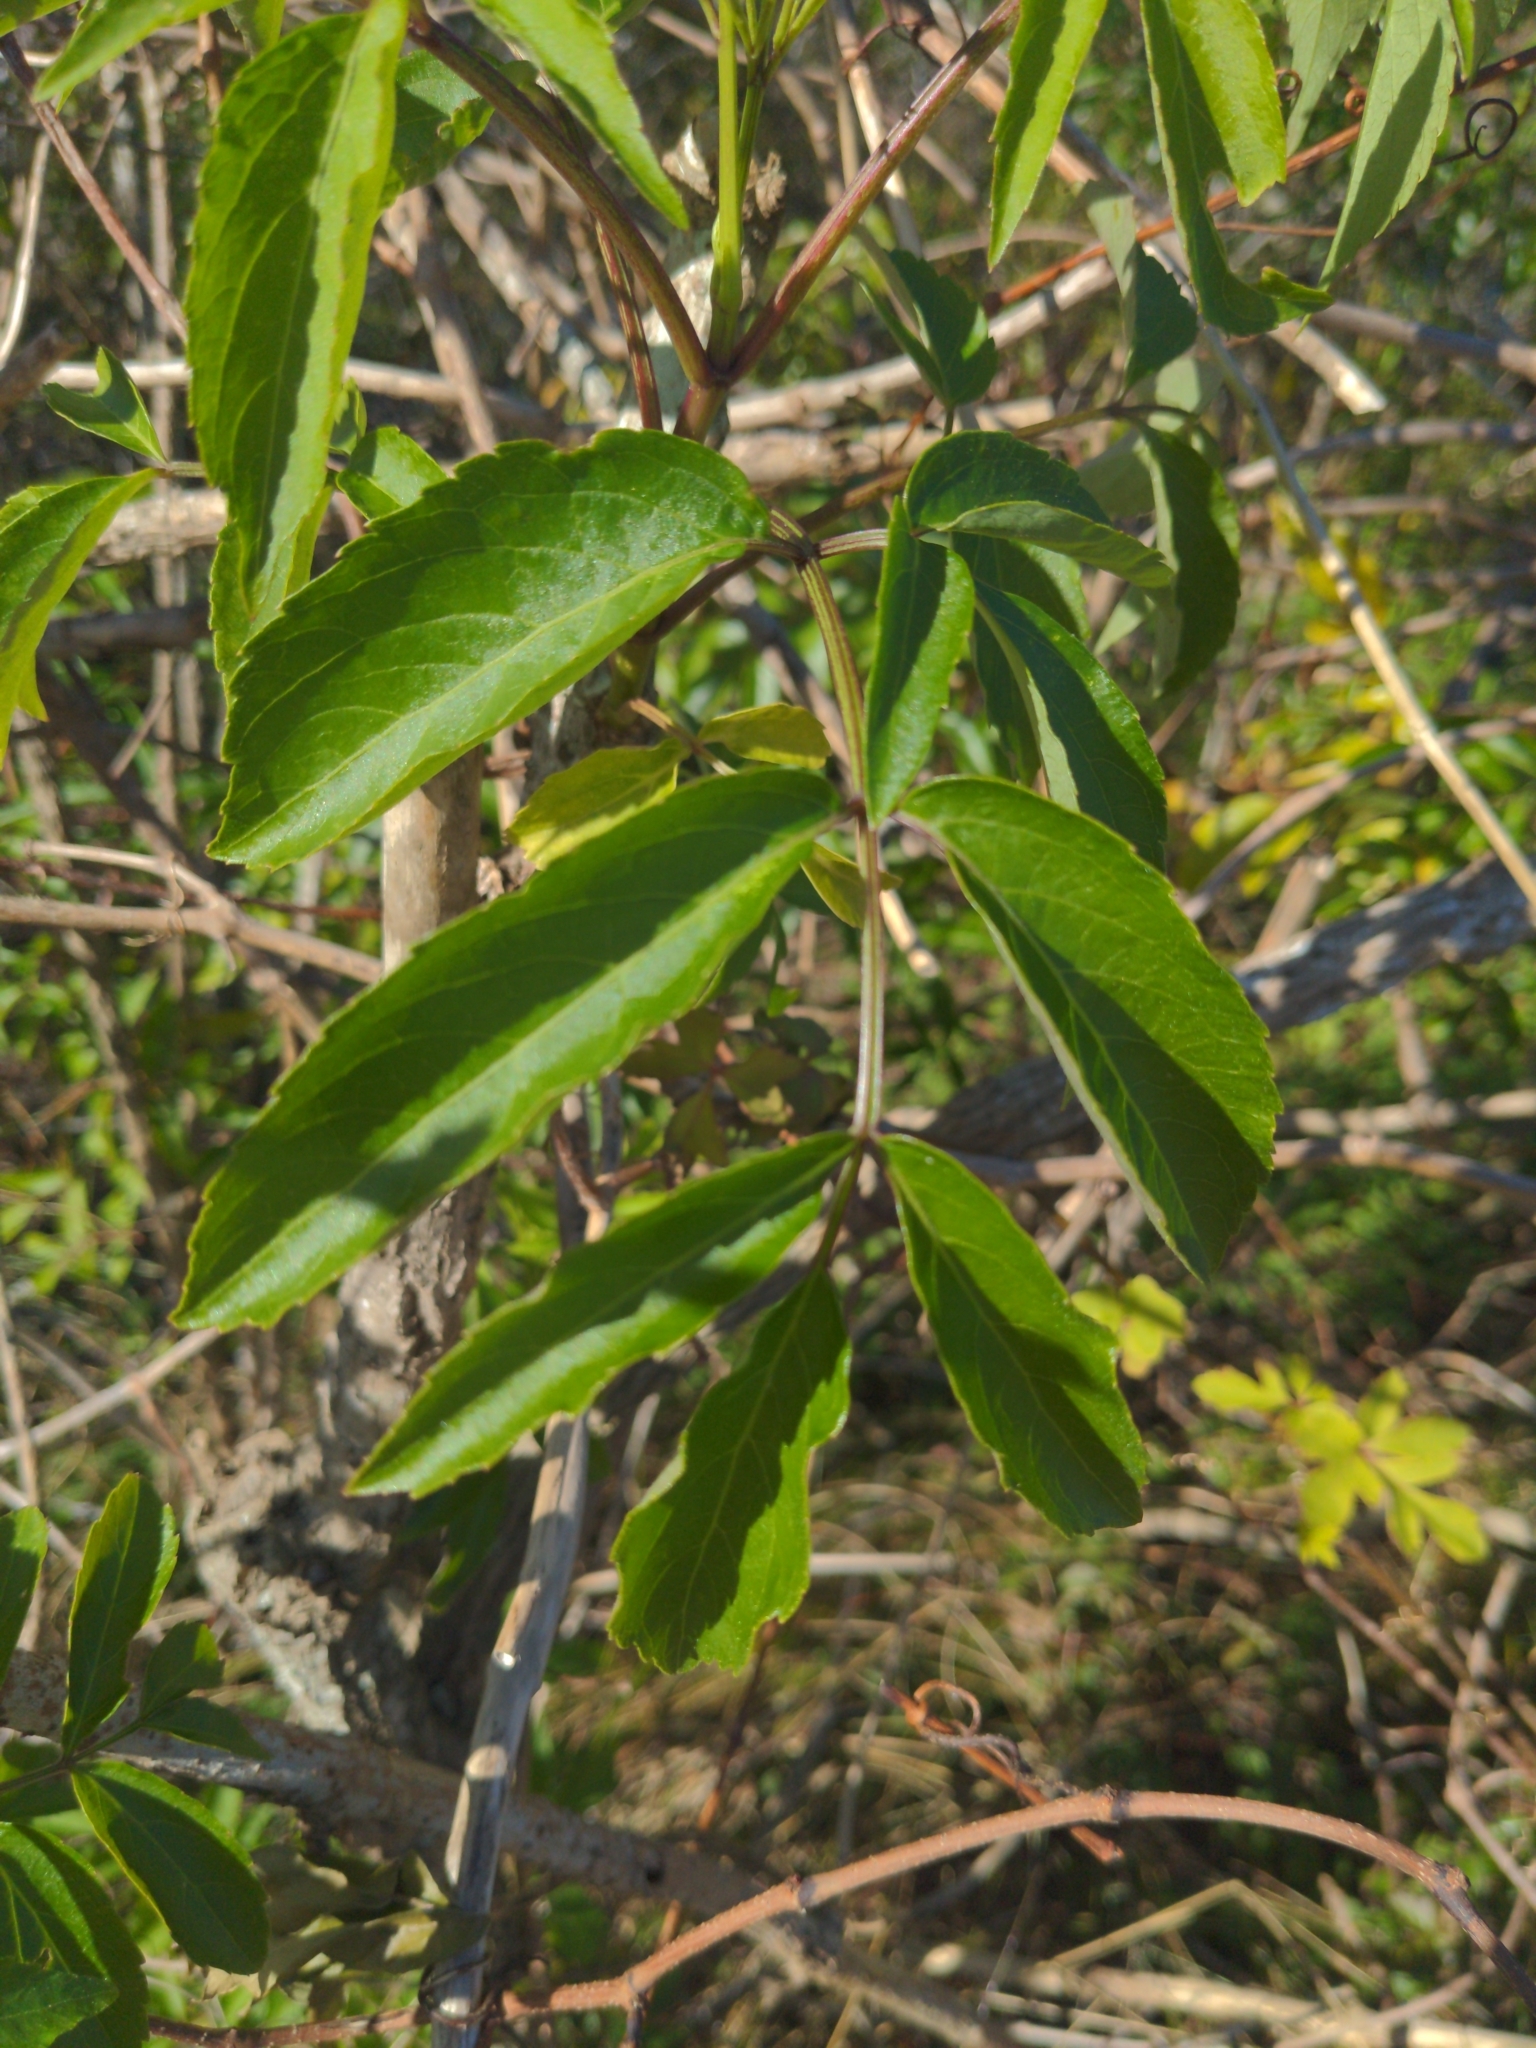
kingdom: Plantae
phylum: Tracheophyta
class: Magnoliopsida
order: Dipsacales
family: Viburnaceae
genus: Sambucus
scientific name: Sambucus canadensis
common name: American elder
